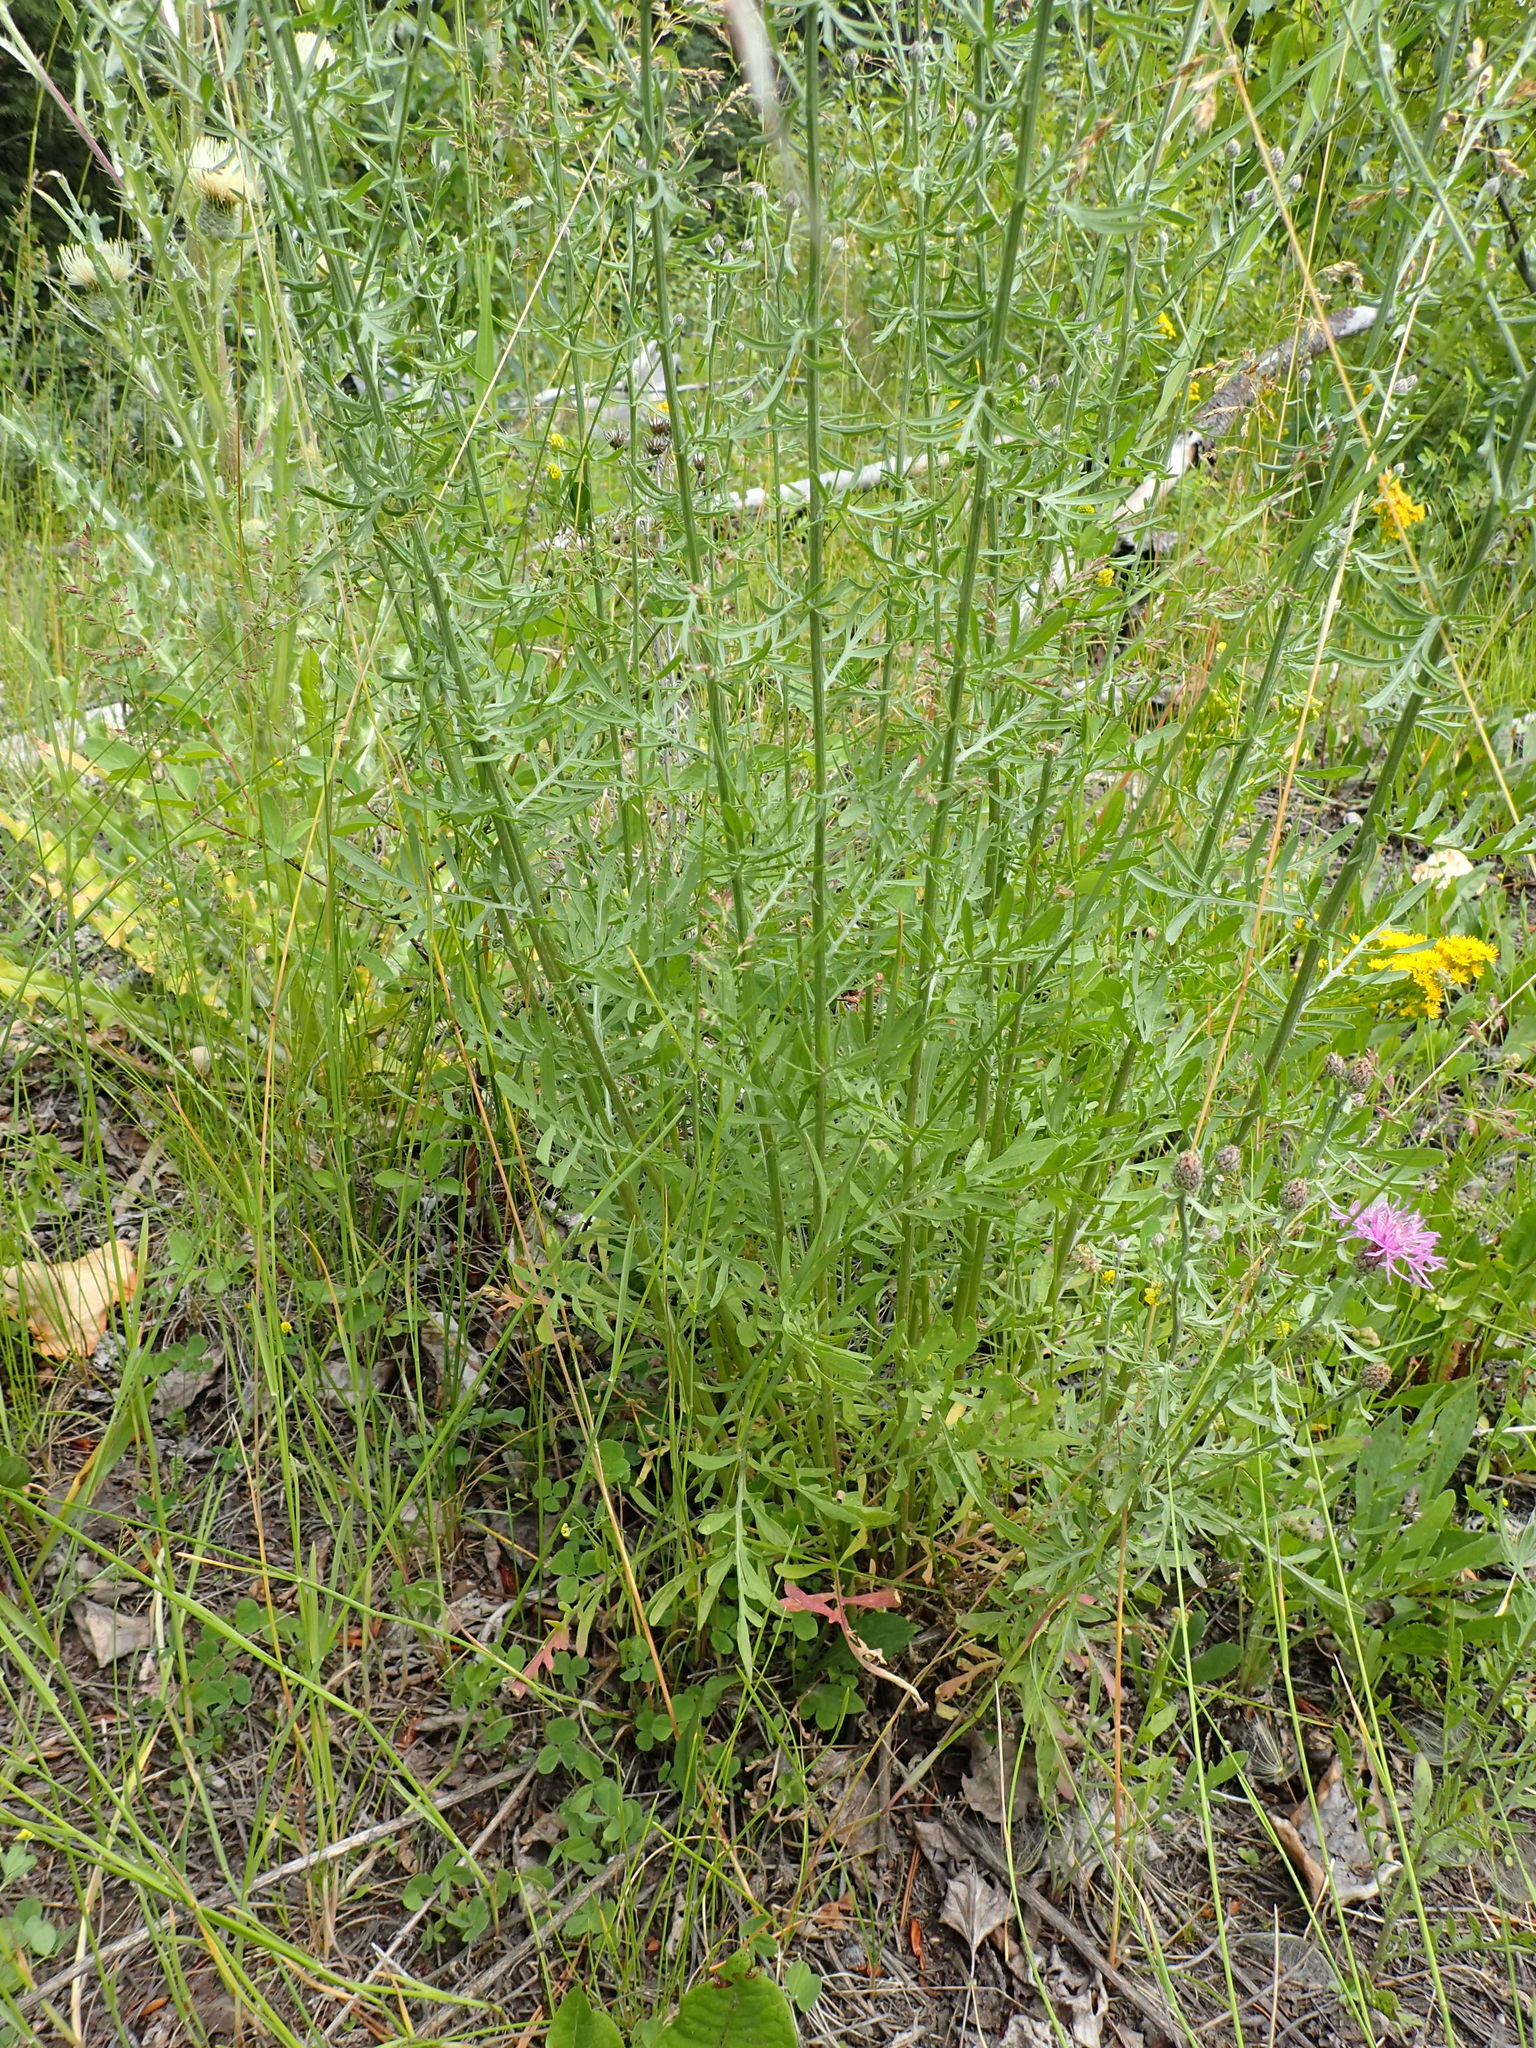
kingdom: Plantae
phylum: Tracheophyta
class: Magnoliopsida
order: Asterales
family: Asteraceae
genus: Centaurea
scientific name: Centaurea australis
